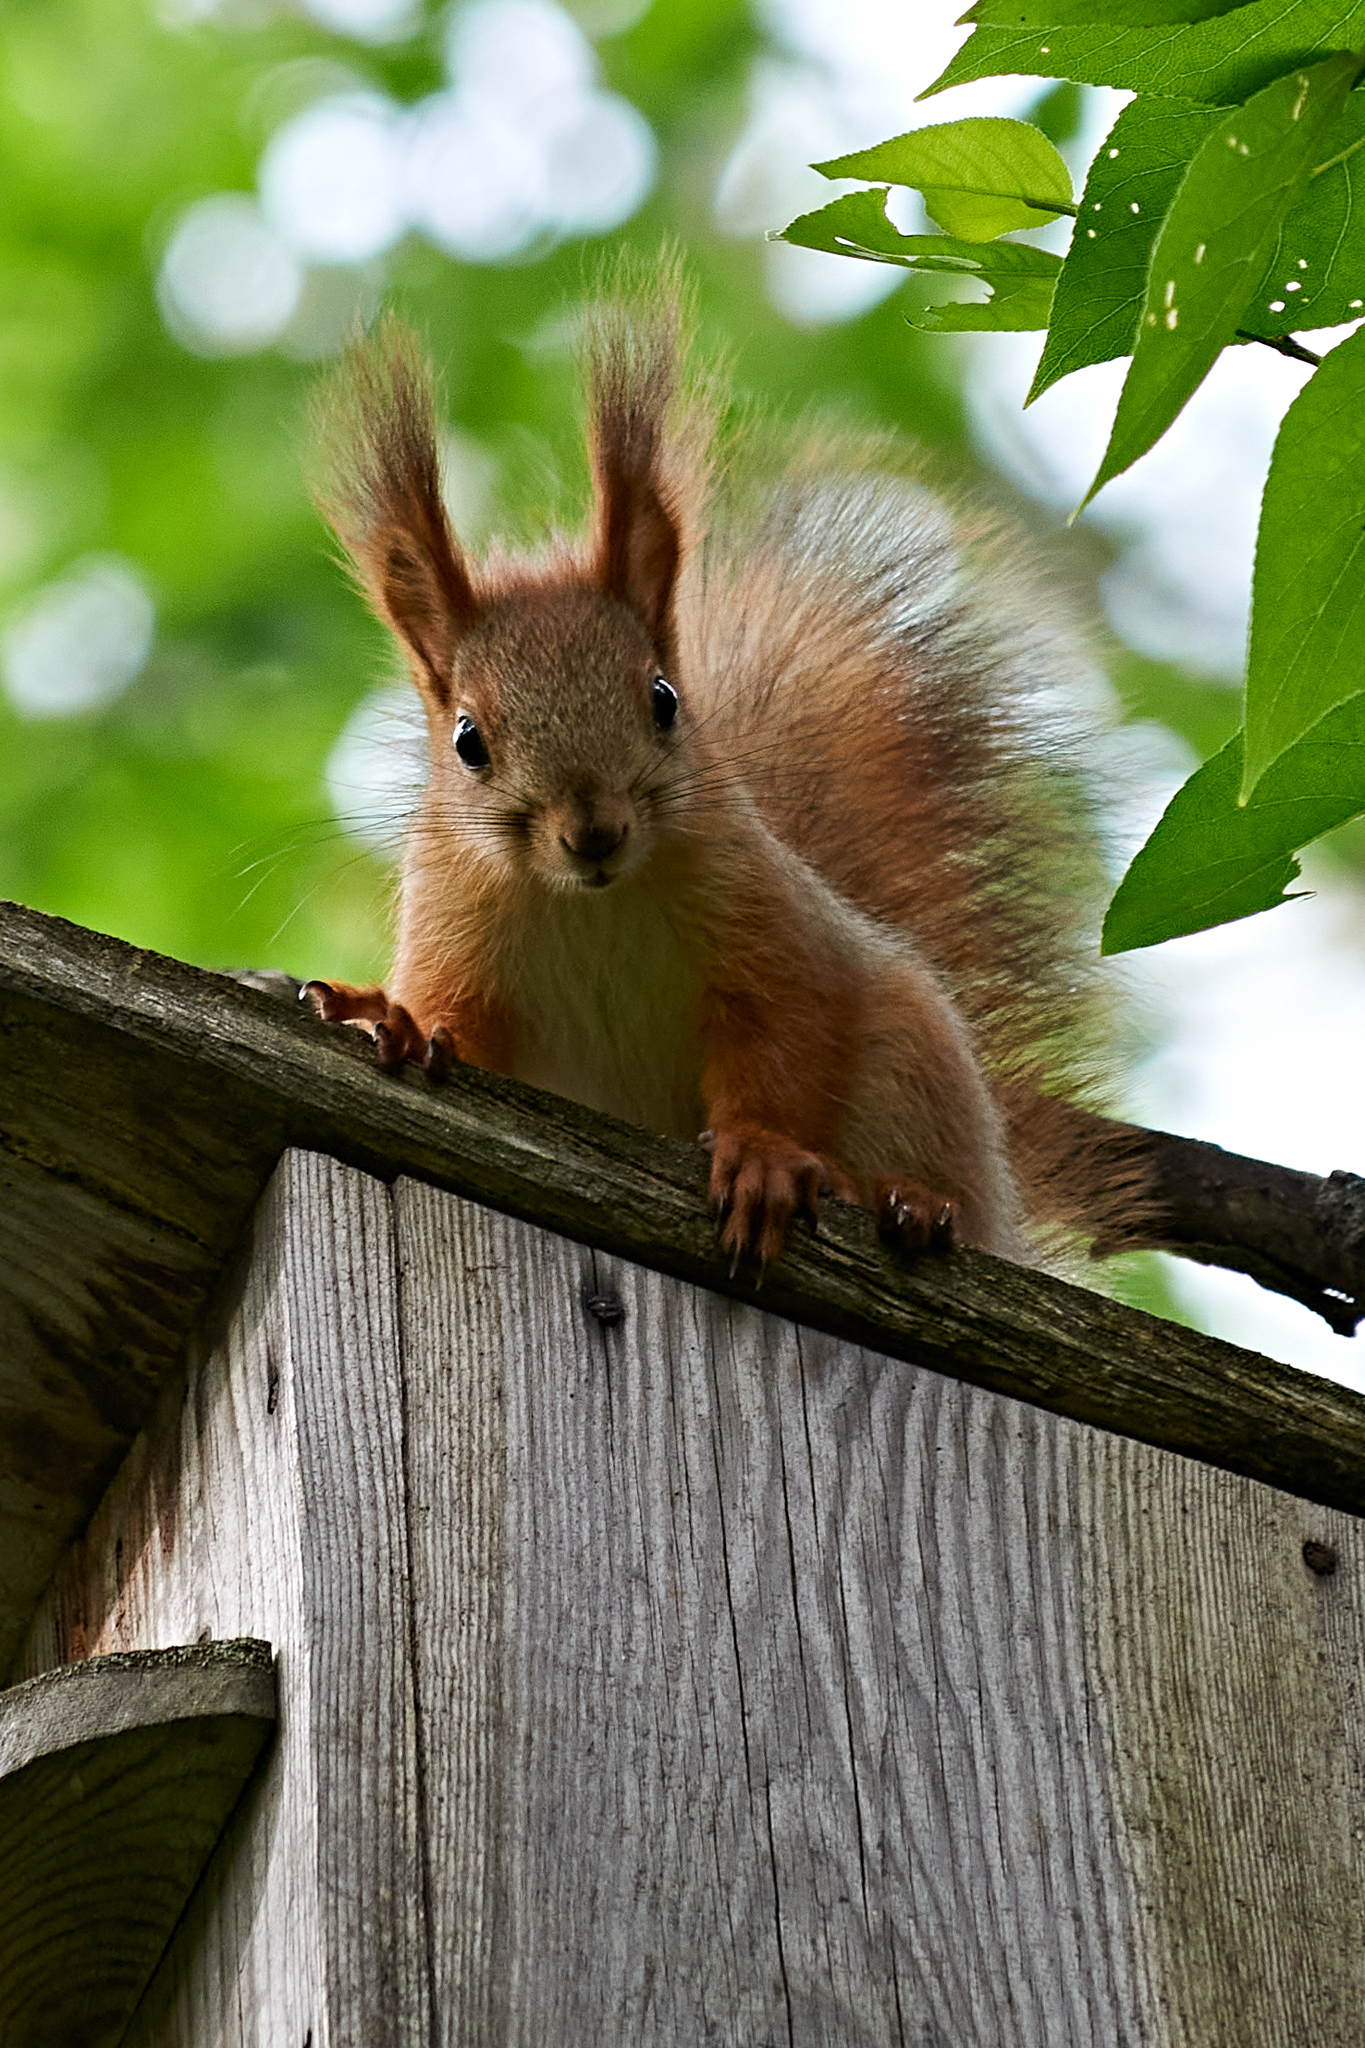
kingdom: Animalia
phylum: Chordata
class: Mammalia
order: Rodentia
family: Sciuridae
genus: Sciurus
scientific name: Sciurus vulgaris
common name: Eurasian red squirrel
